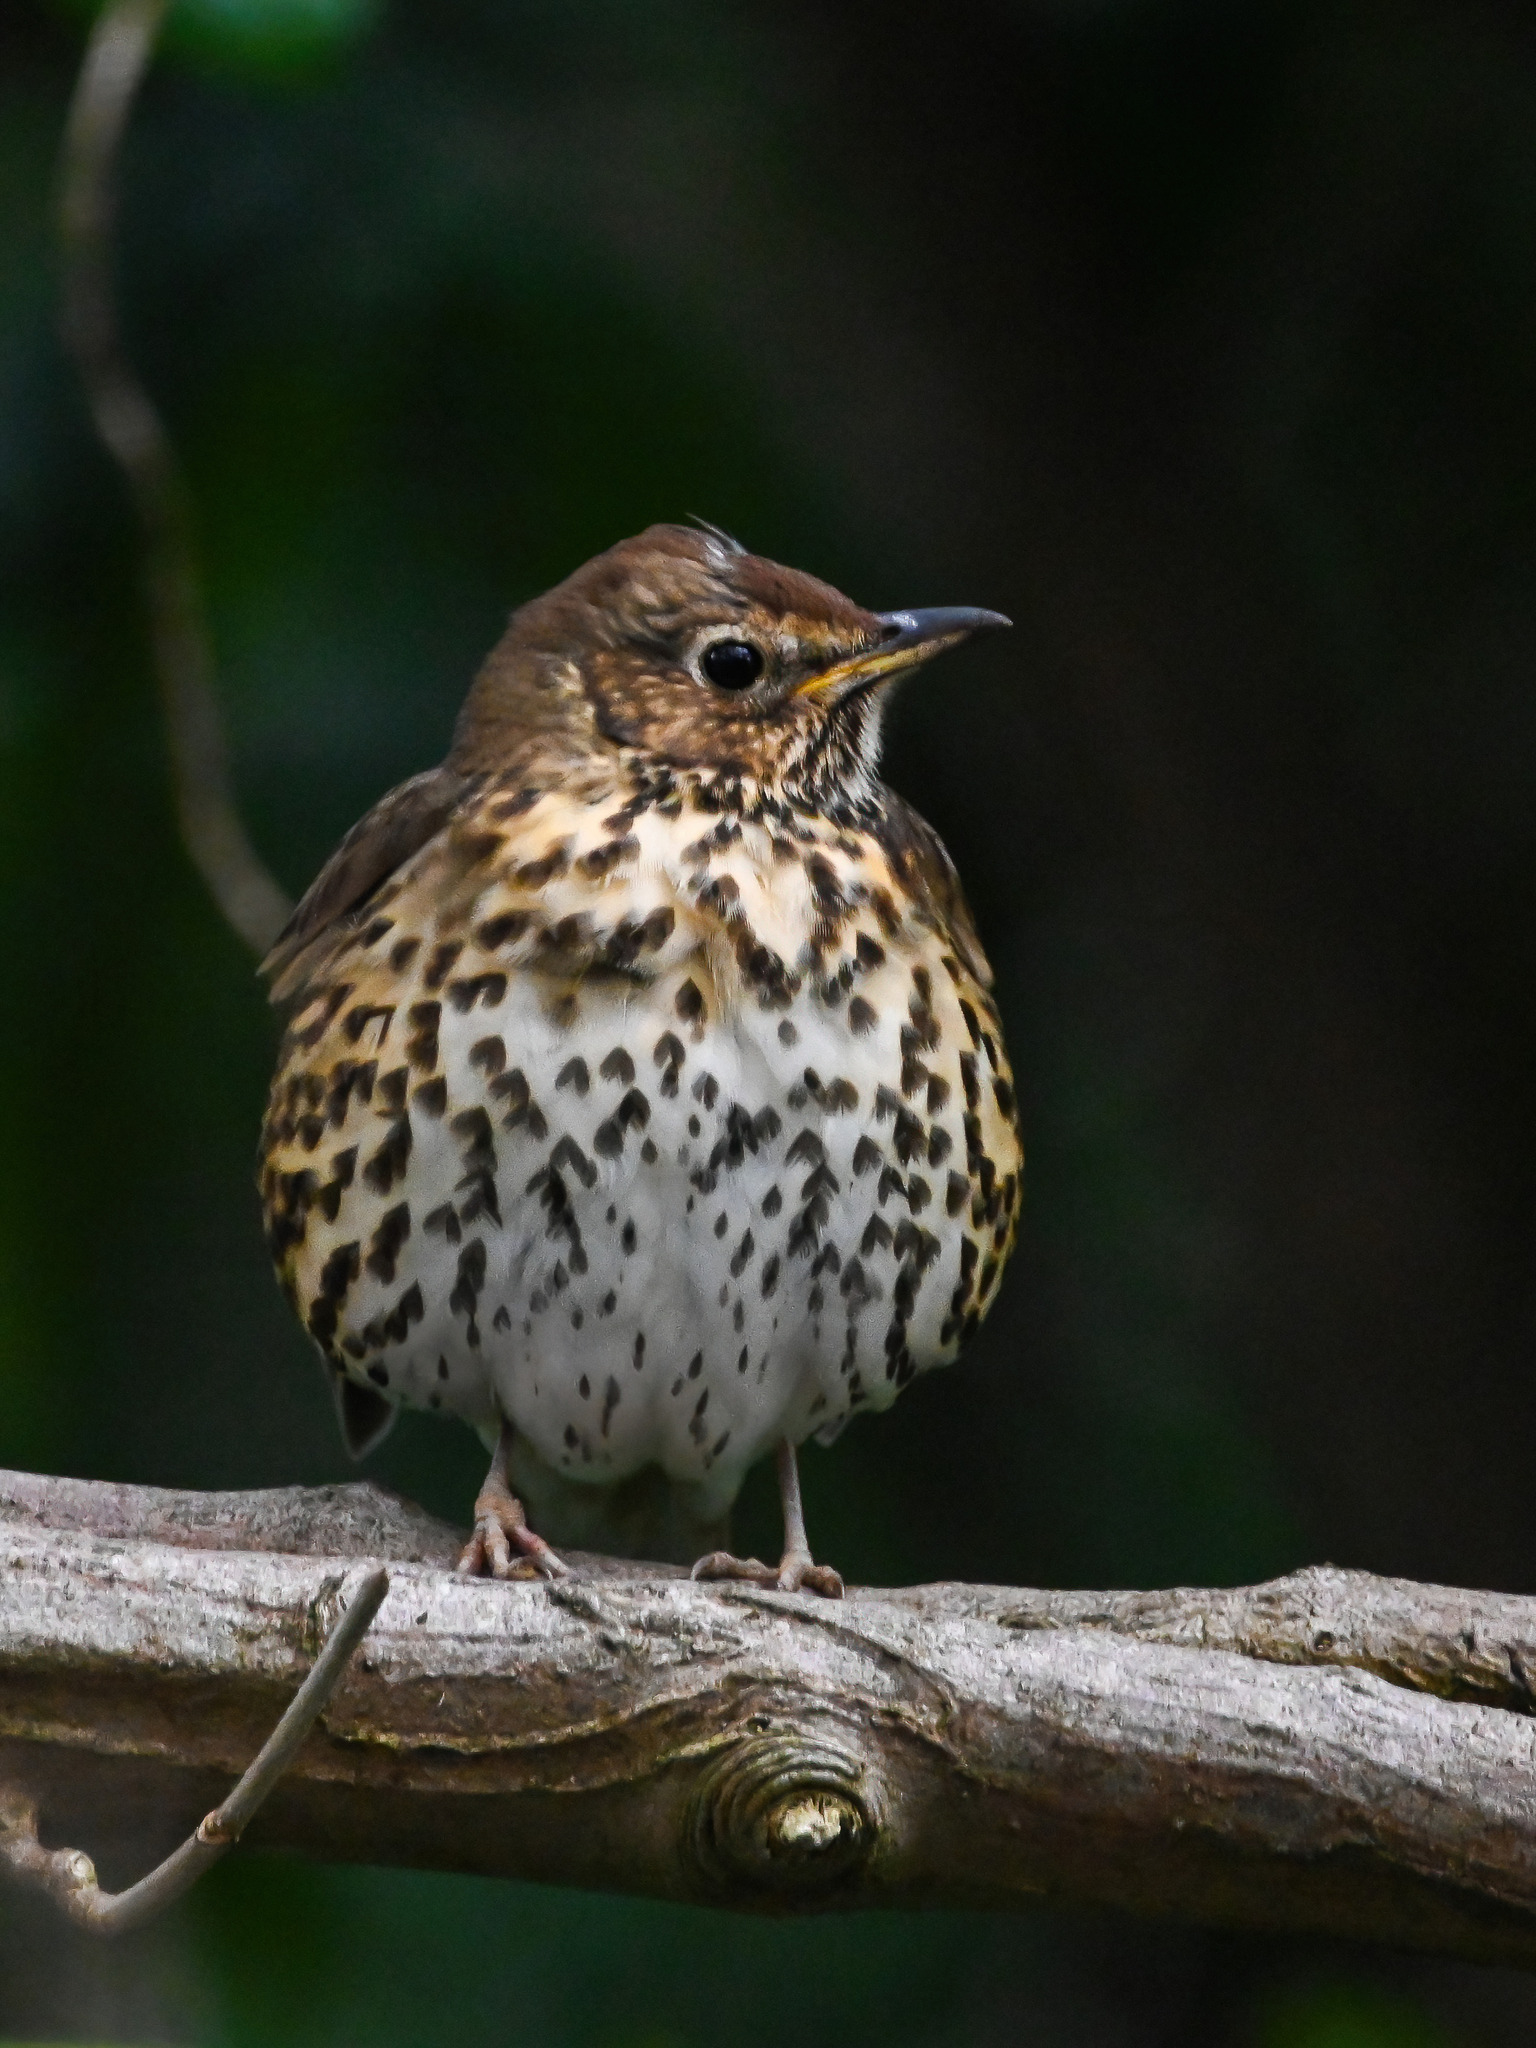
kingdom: Animalia
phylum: Chordata
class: Aves
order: Passeriformes
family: Turdidae
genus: Turdus
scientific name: Turdus philomelos
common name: Song thrush
